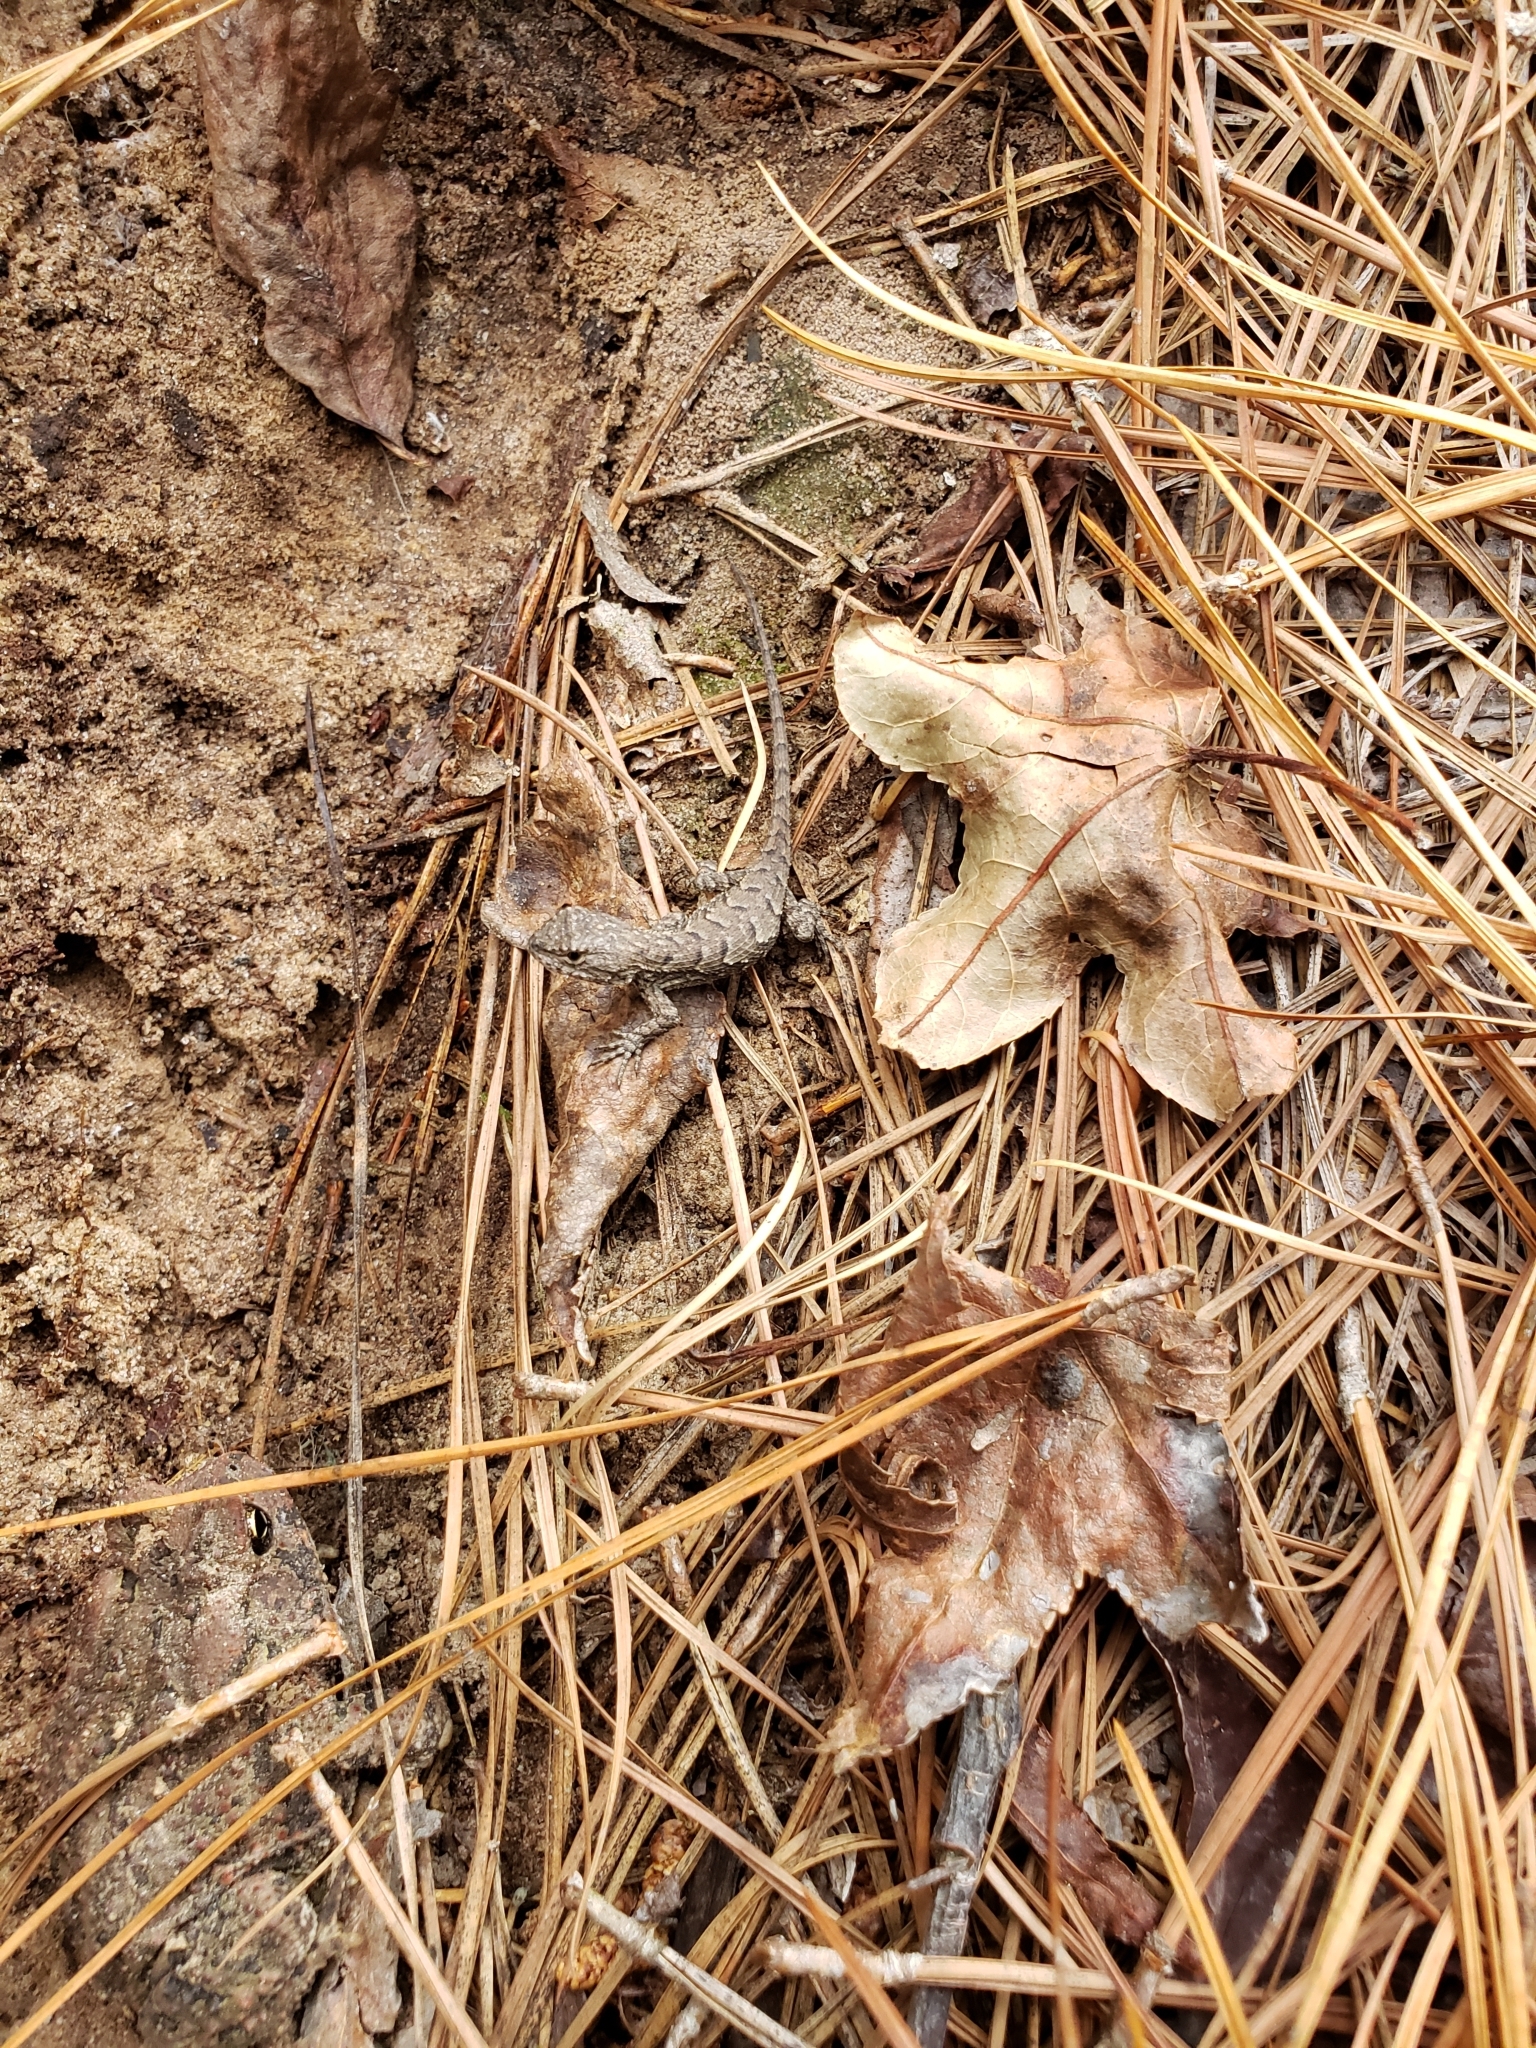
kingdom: Animalia
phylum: Chordata
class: Squamata
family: Phrynosomatidae
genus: Sceloporus
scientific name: Sceloporus consobrinus
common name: Southern prairie lizard
